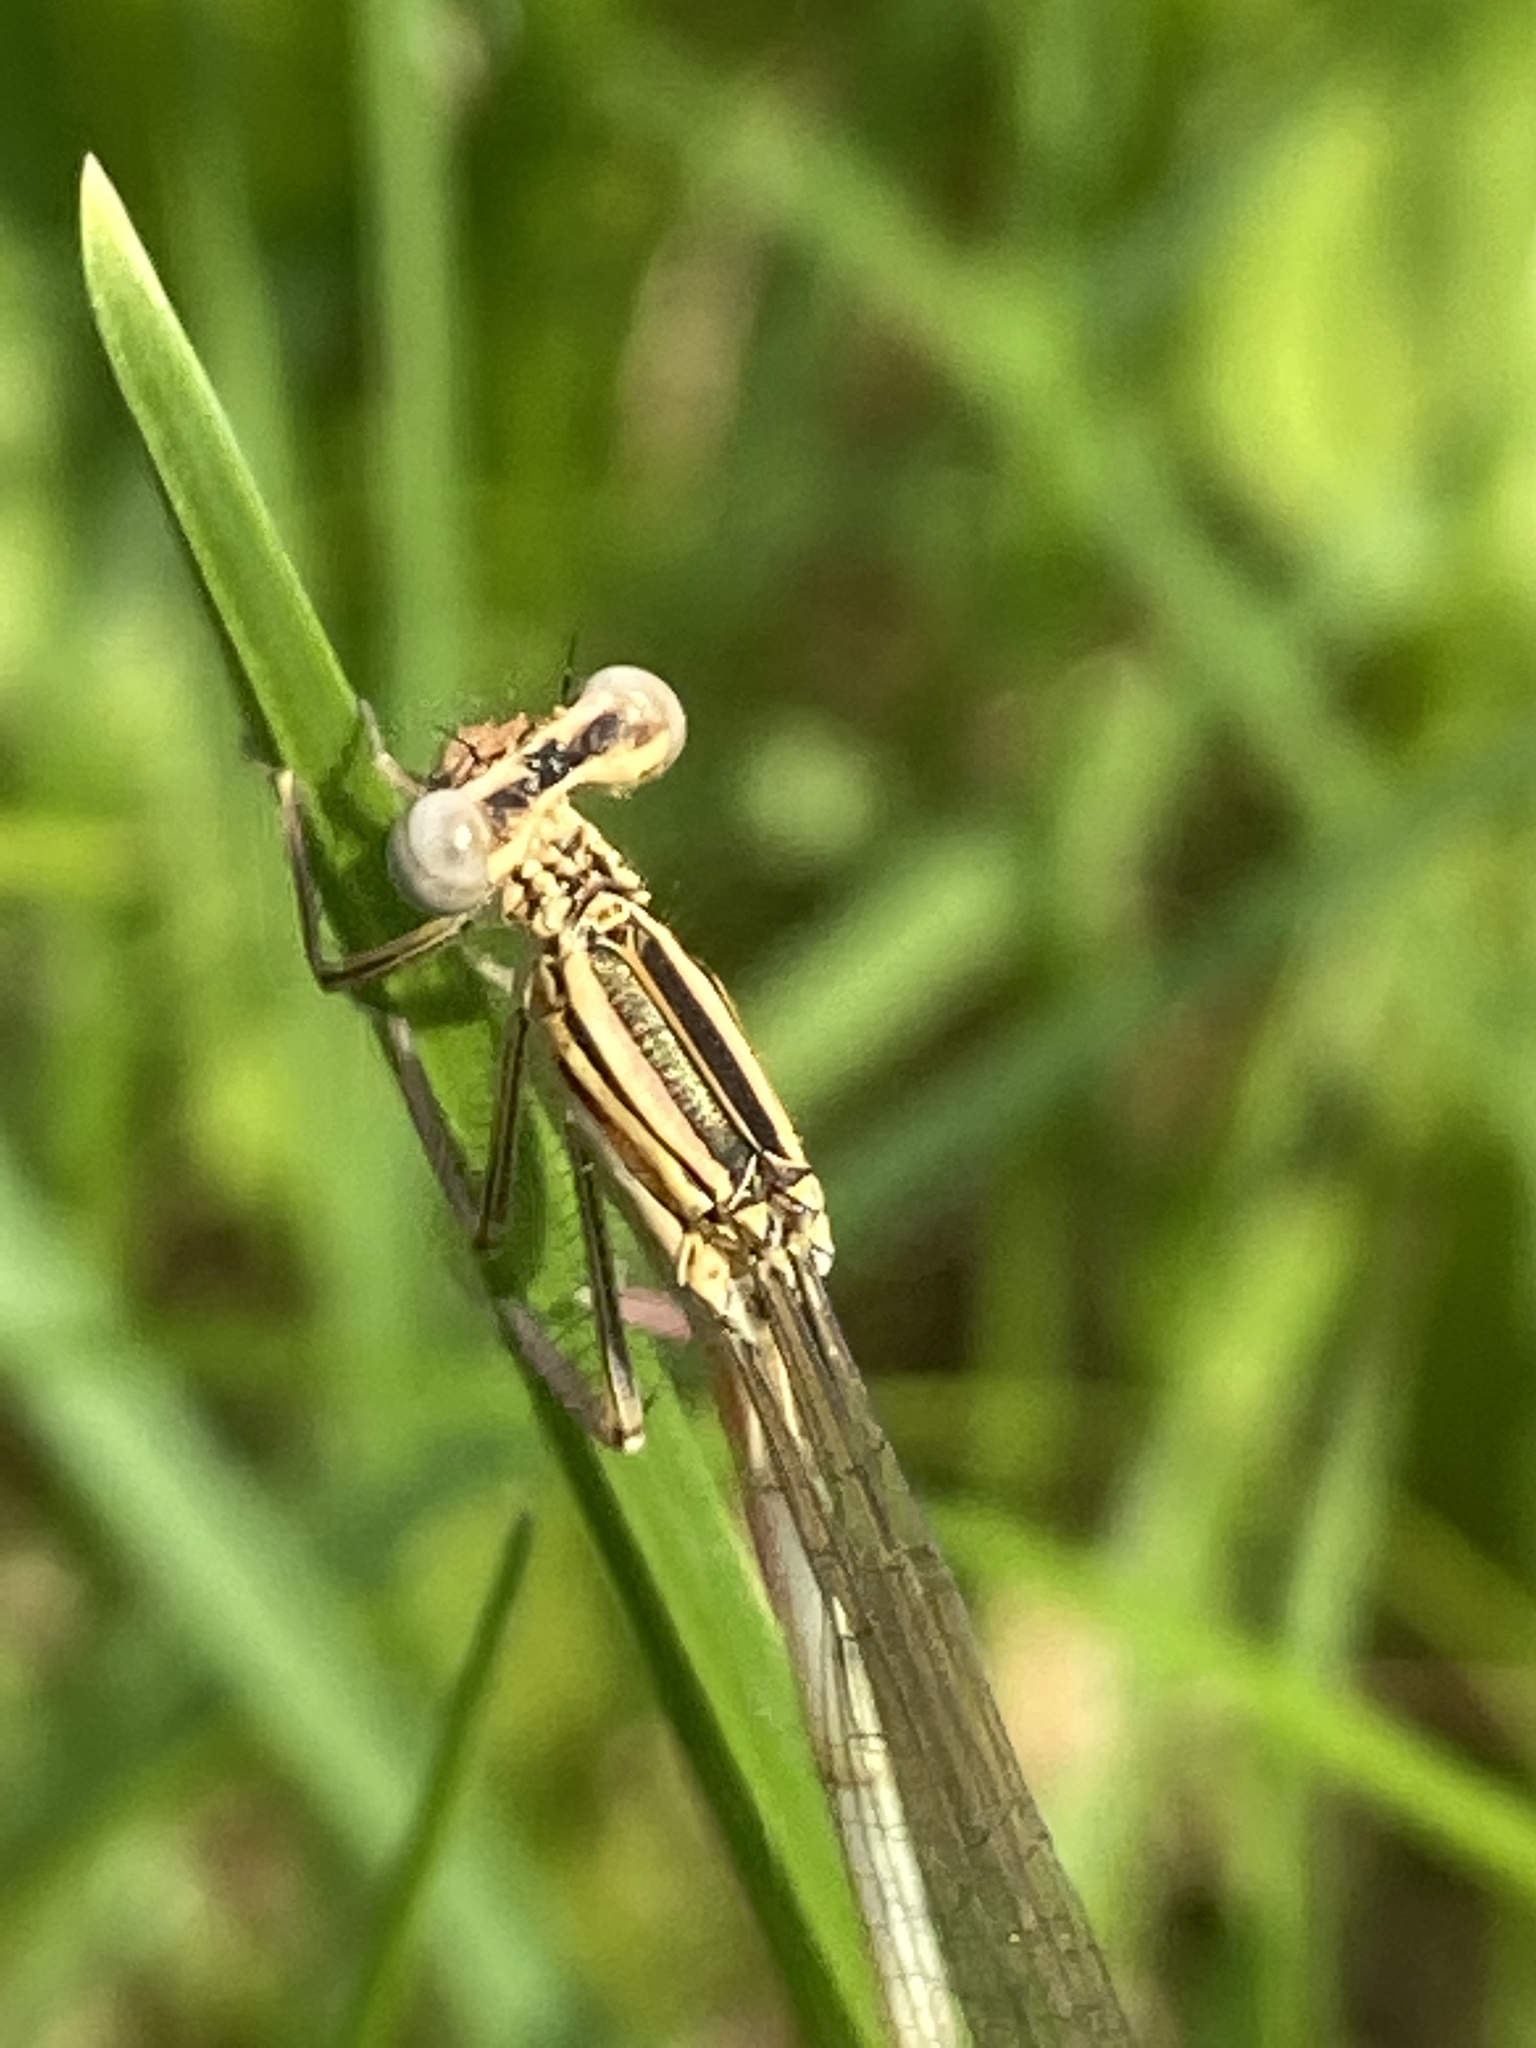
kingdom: Animalia
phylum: Arthropoda
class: Insecta
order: Odonata
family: Platycnemididae
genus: Platycnemis
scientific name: Platycnemis pennipes
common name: White-legged damselfly
